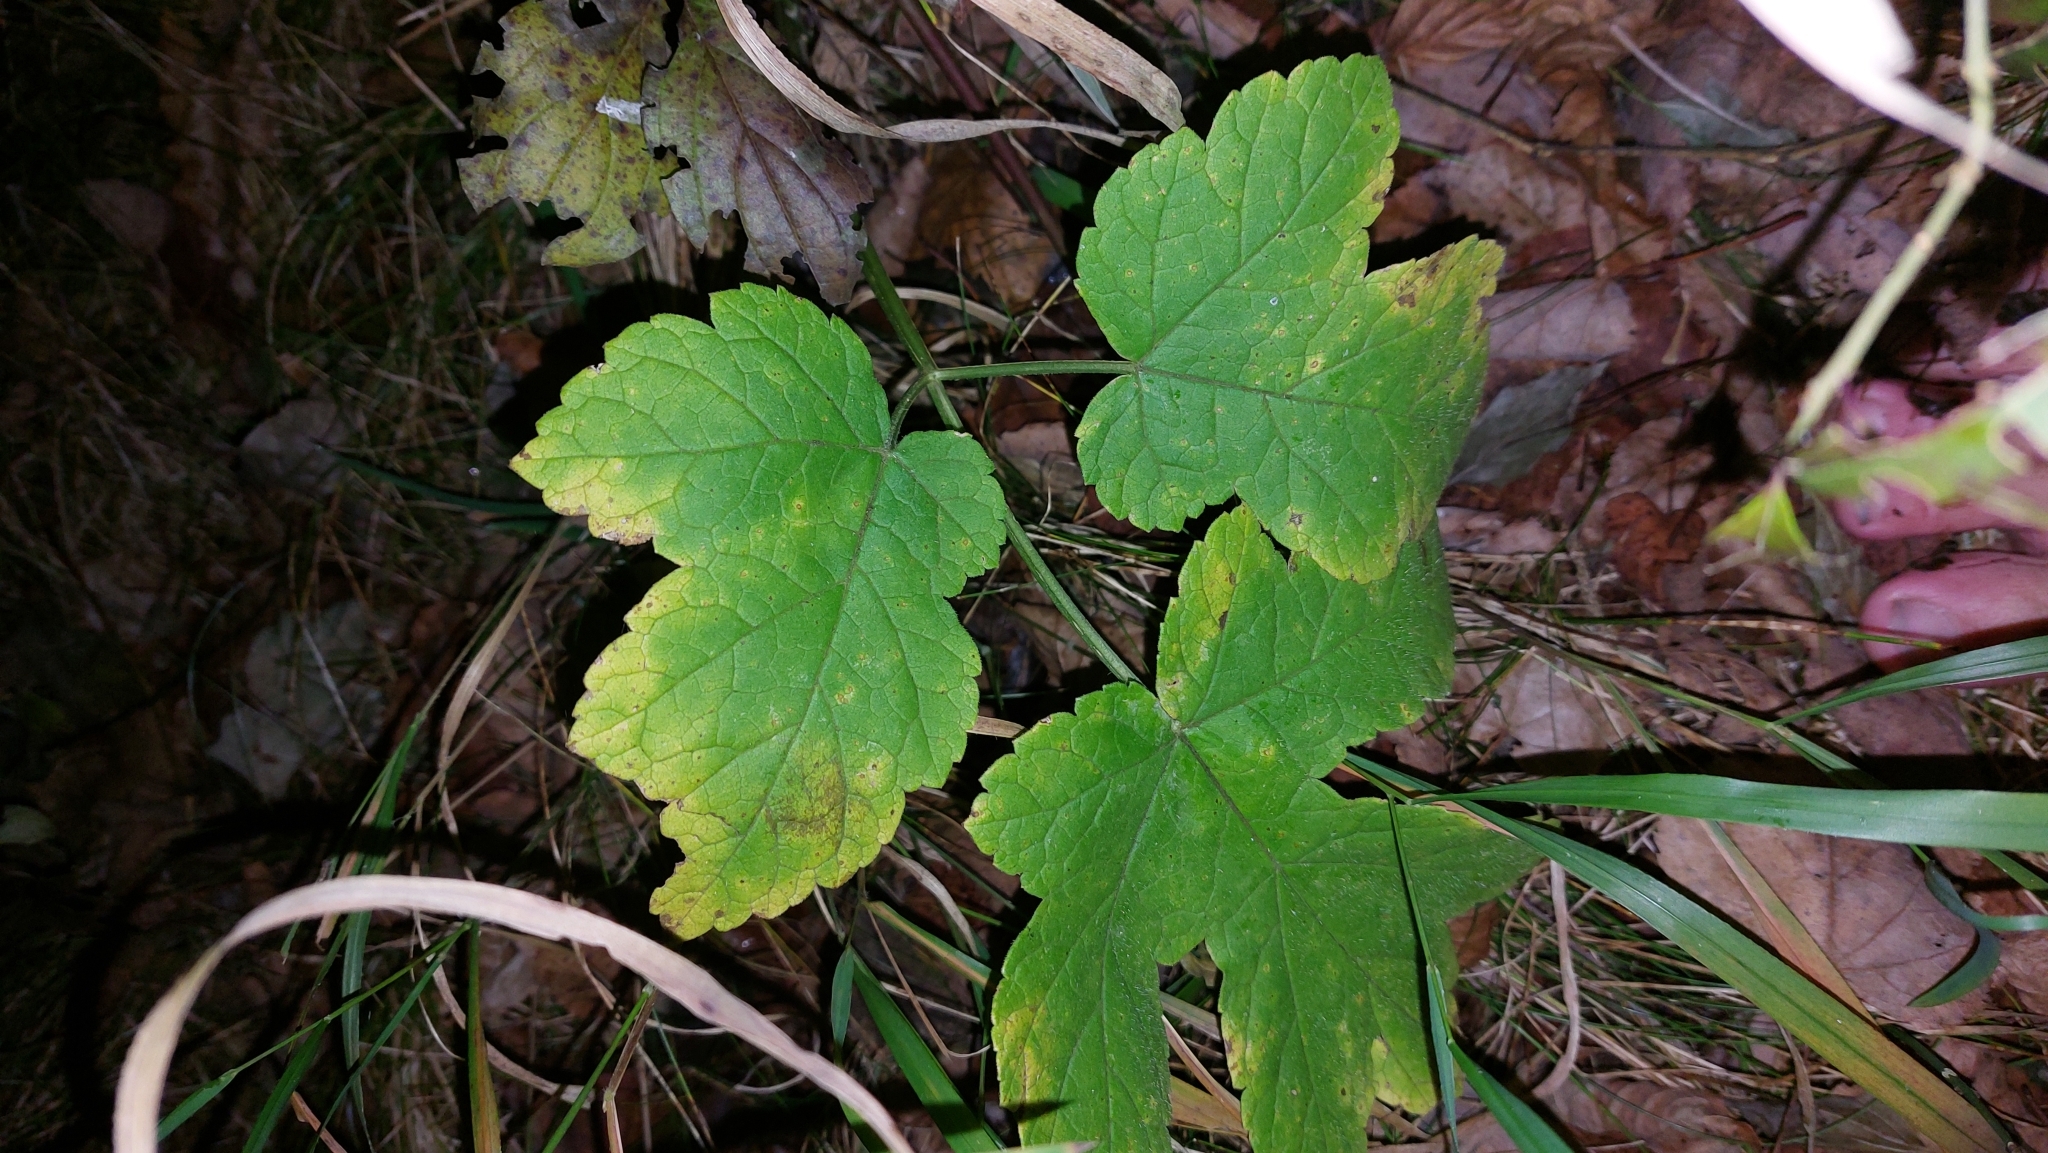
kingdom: Plantae
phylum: Tracheophyta
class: Magnoliopsida
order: Apiales
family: Apiaceae
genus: Heracleum
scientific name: Heracleum sphondylium
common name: Hogweed
